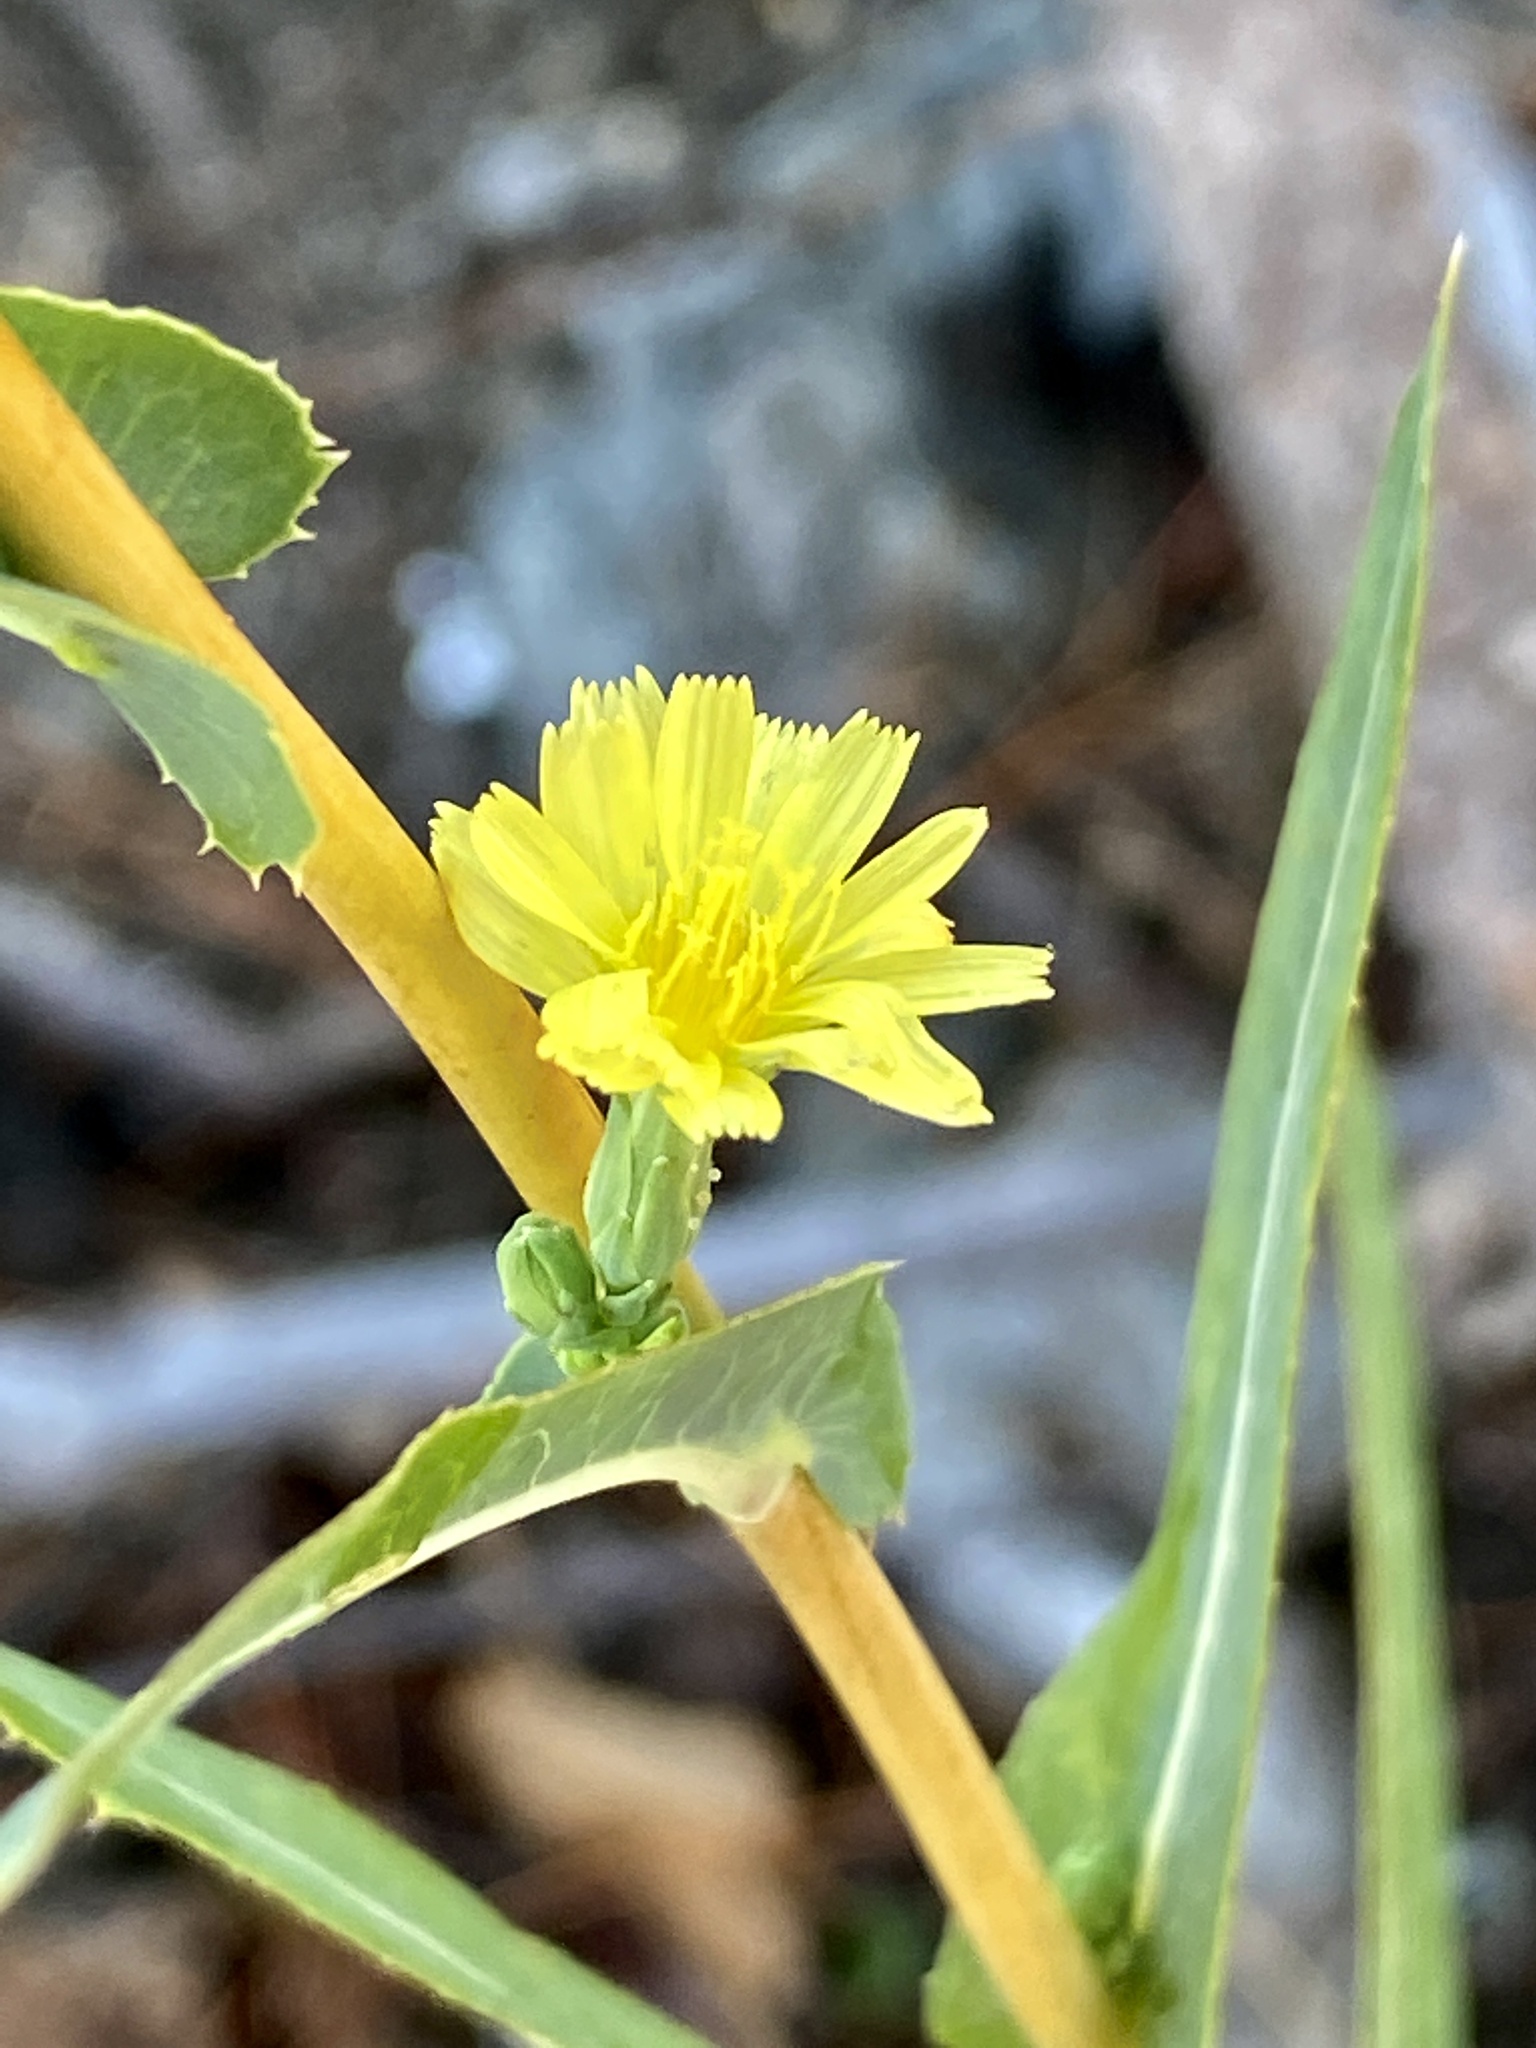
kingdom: Plantae
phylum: Tracheophyta
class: Magnoliopsida
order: Asterales
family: Asteraceae
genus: Lactuca
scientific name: Lactuca serriola
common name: Prickly lettuce
